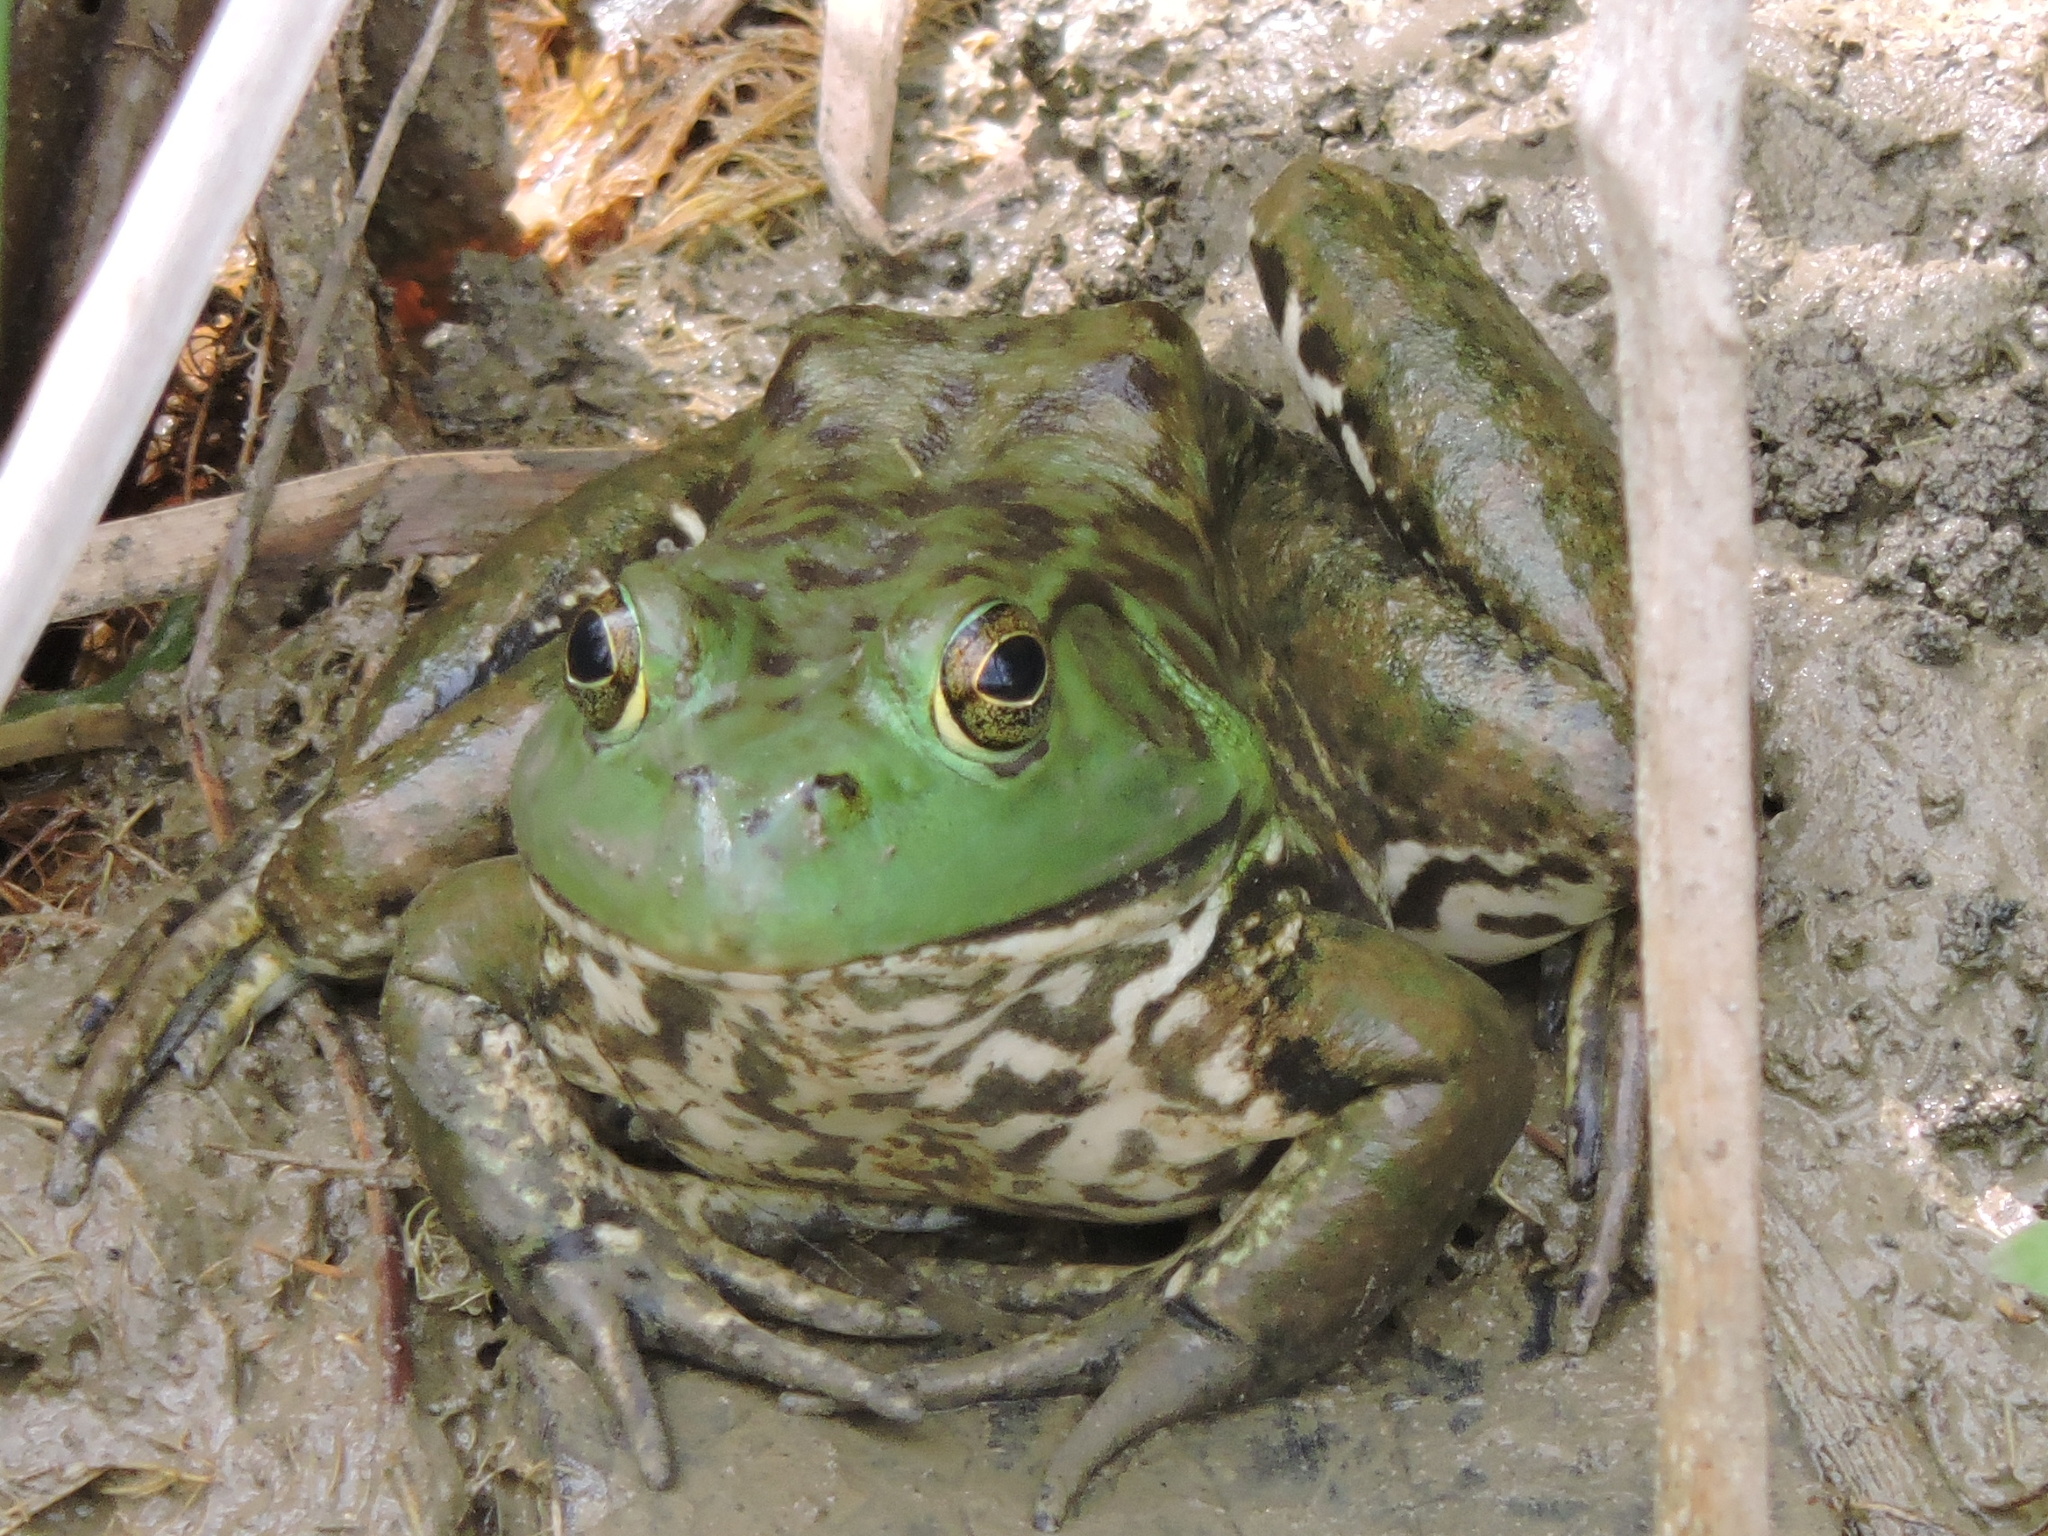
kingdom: Animalia
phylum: Chordata
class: Amphibia
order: Anura
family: Ranidae
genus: Lithobates
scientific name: Lithobates catesbeianus
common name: American bullfrog
